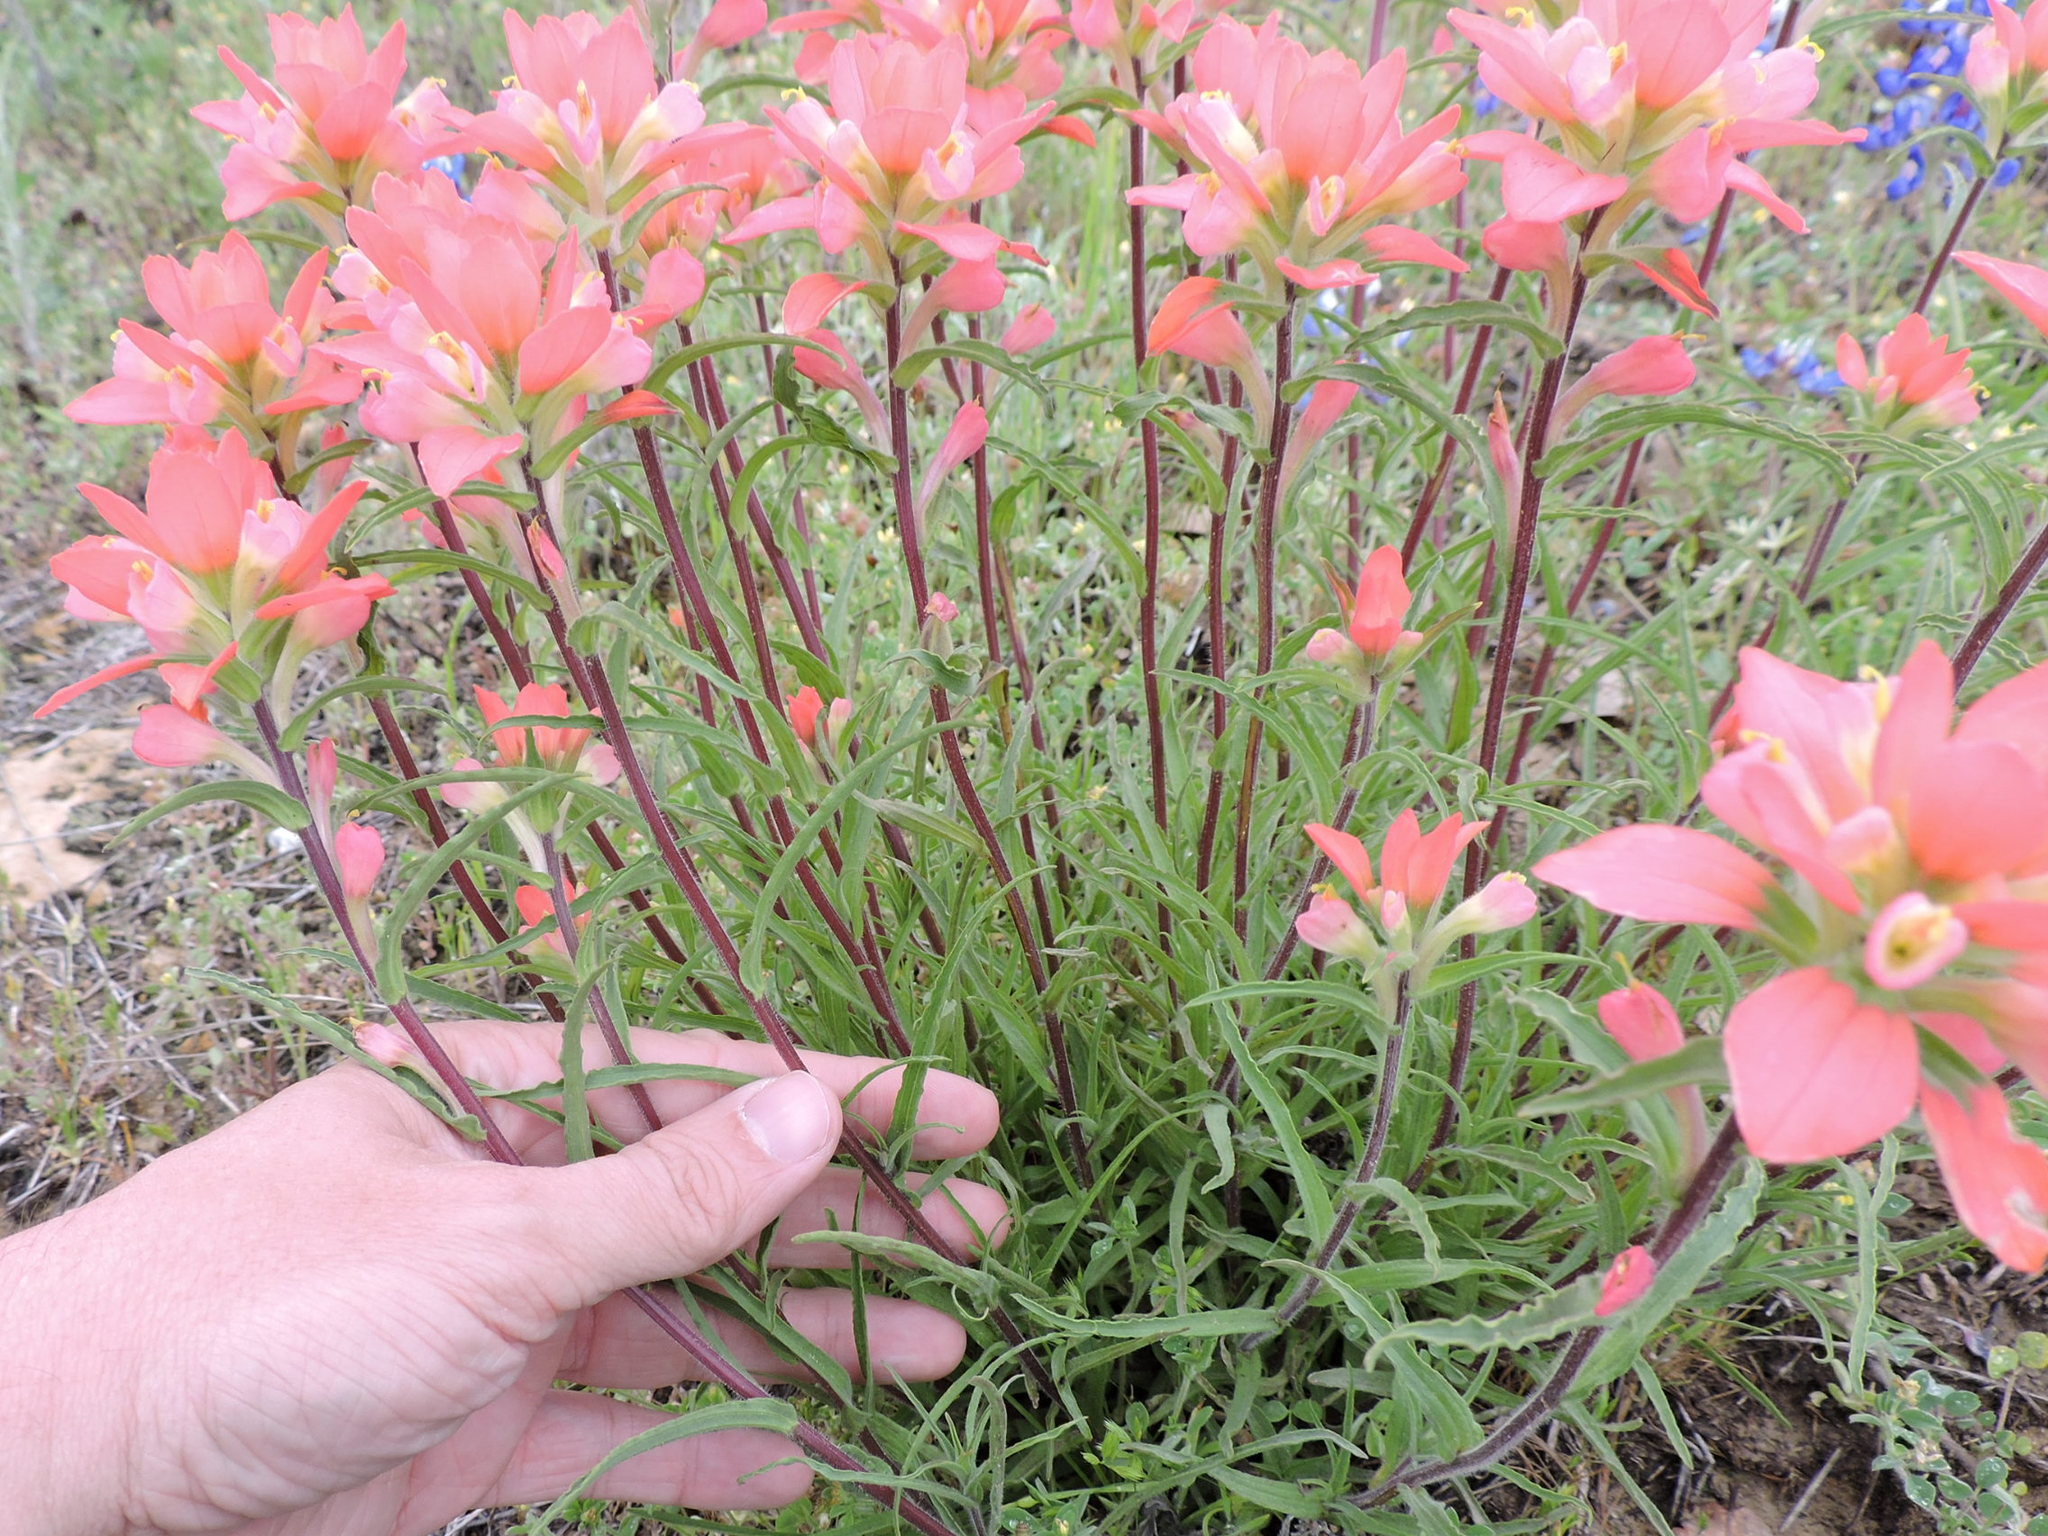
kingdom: Plantae
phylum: Tracheophyta
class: Magnoliopsida
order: Lamiales
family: Orobanchaceae
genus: Castilleja
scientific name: Castilleja indivisa
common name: Texas paintbrush
